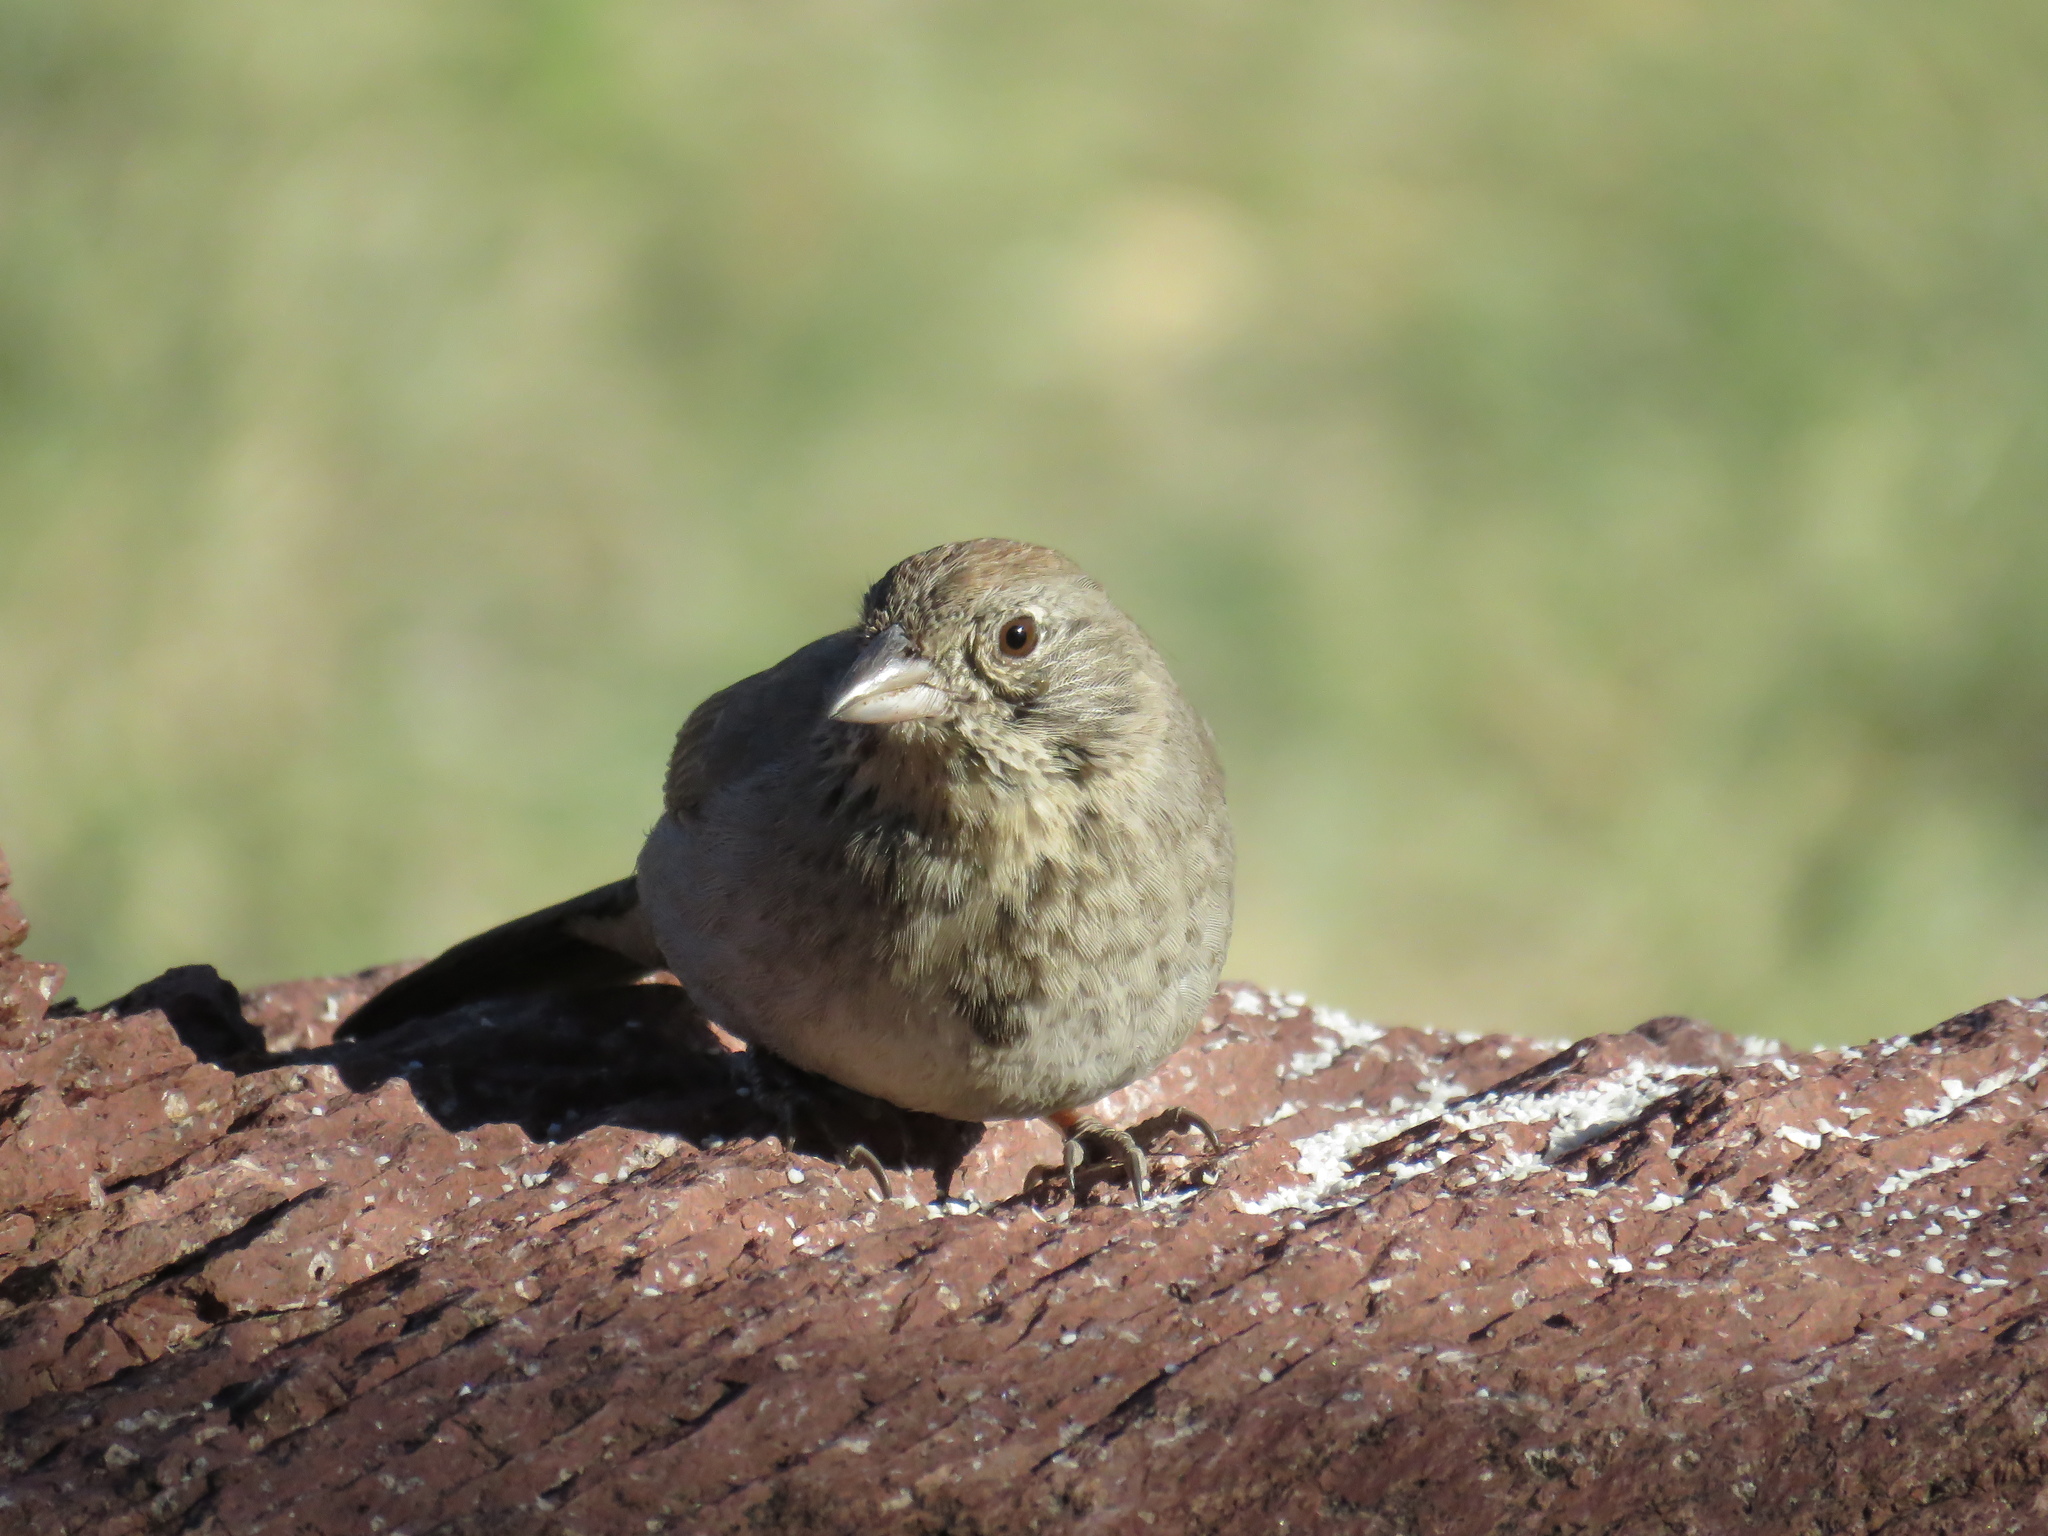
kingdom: Animalia
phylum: Chordata
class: Aves
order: Passeriformes
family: Passerellidae
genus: Melozone
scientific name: Melozone fusca
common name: Canyon towhee
